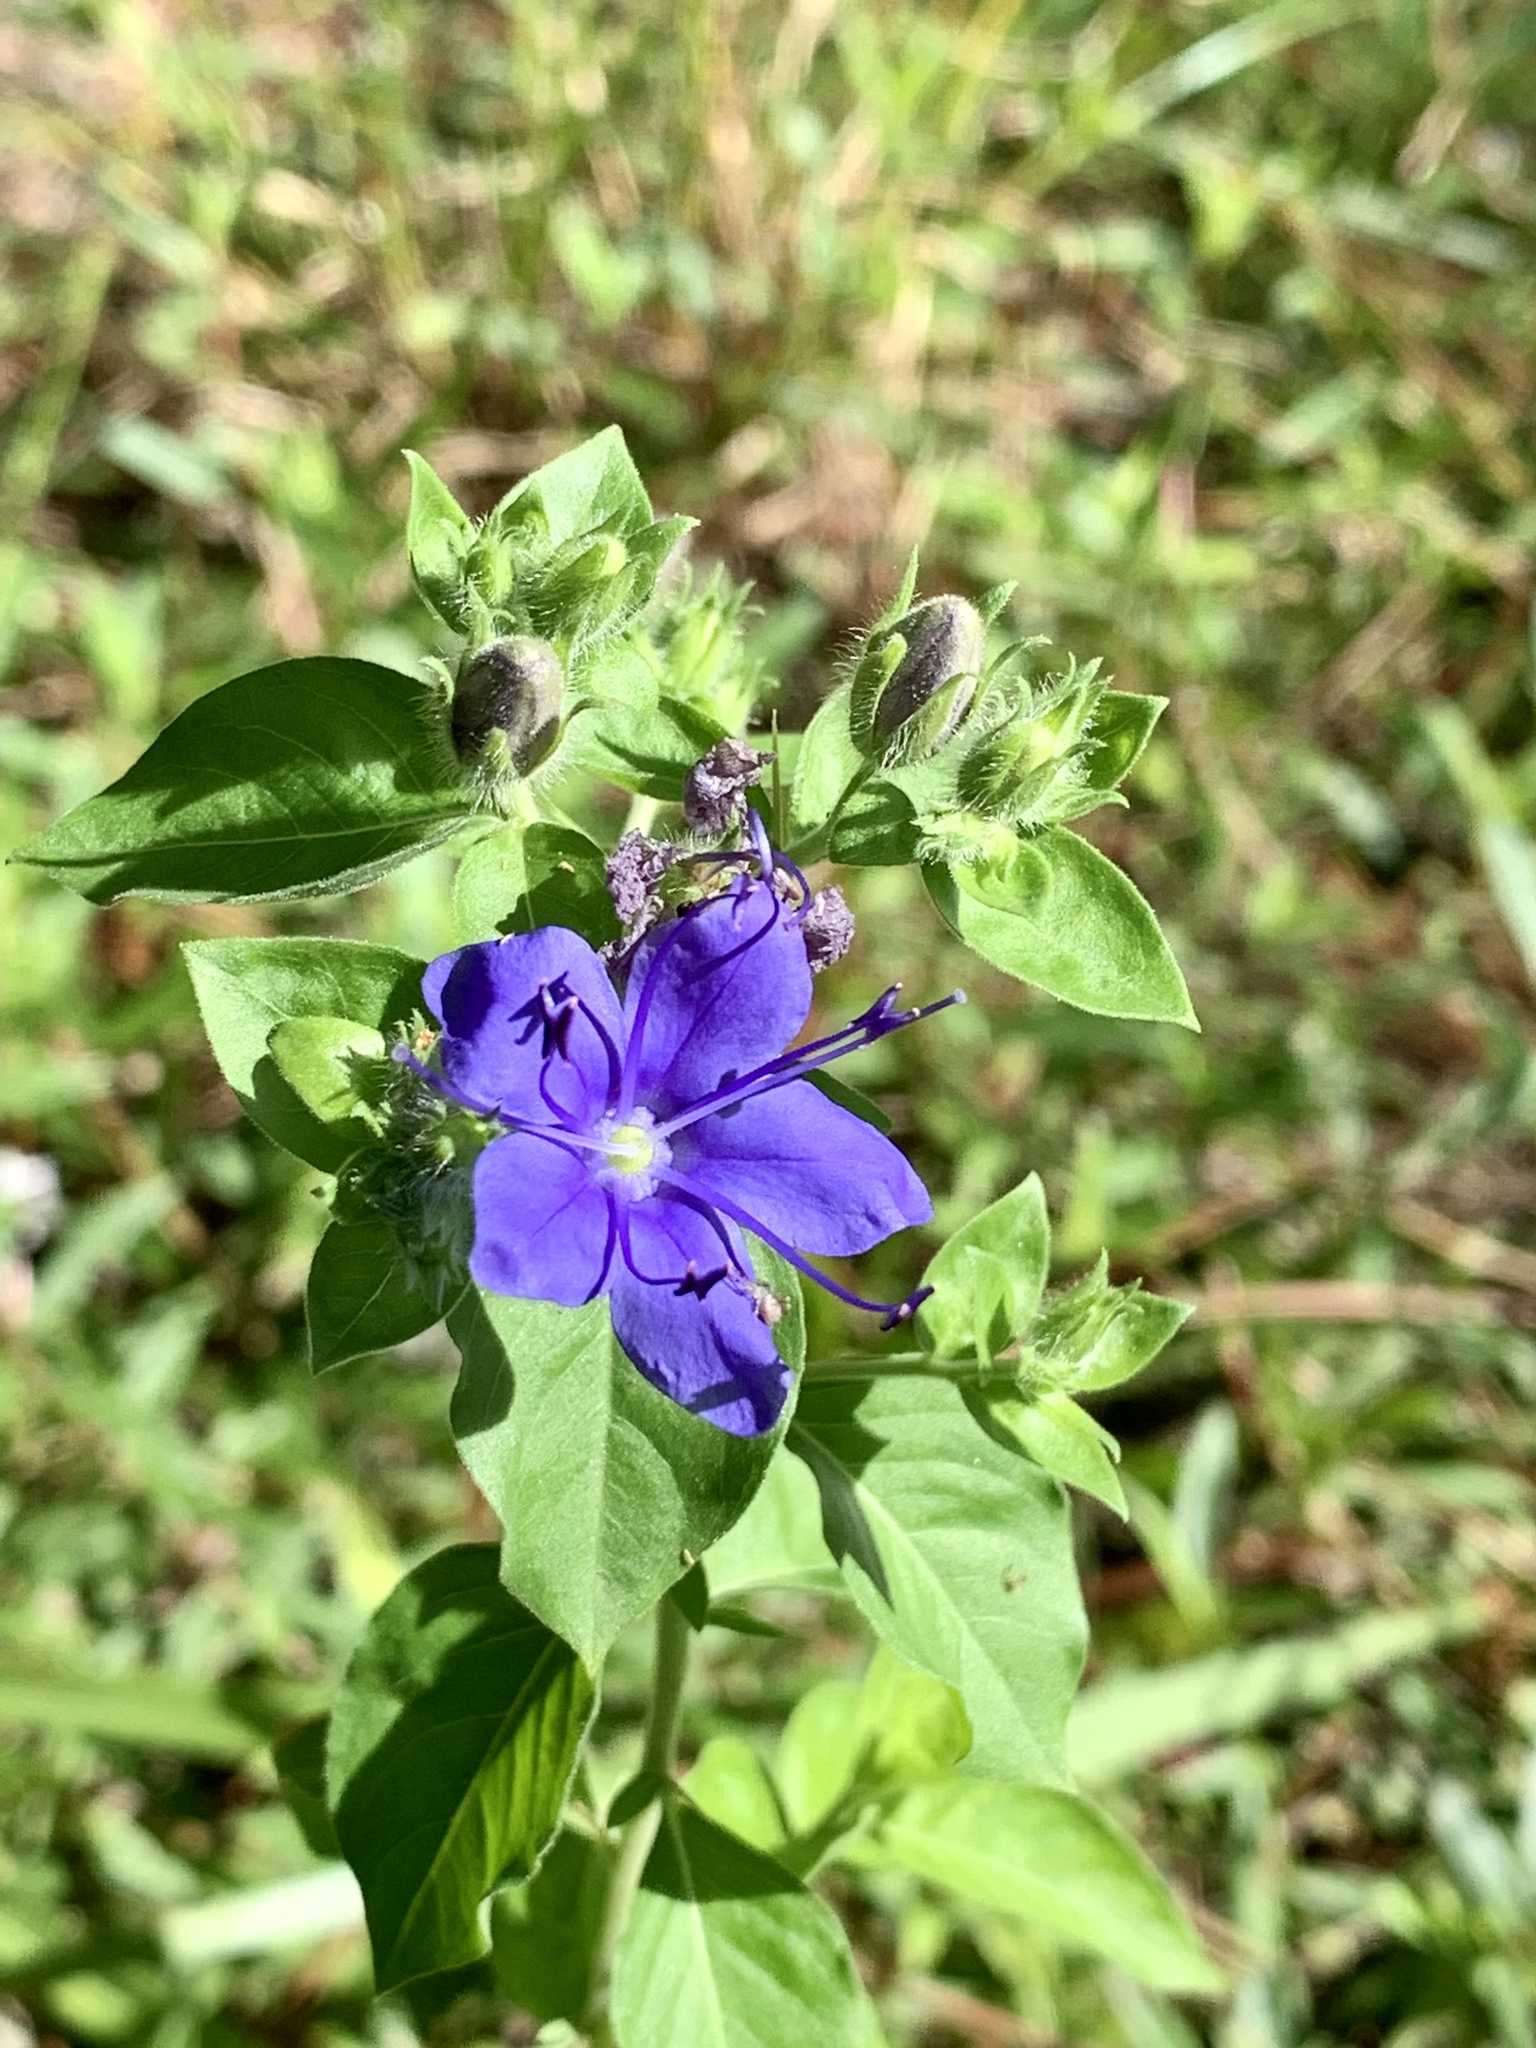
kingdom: Plantae
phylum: Tracheophyta
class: Magnoliopsida
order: Solanales
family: Hydroleaceae
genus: Hydrolea
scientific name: Hydrolea ovata
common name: Ovate false fiddleleaf
